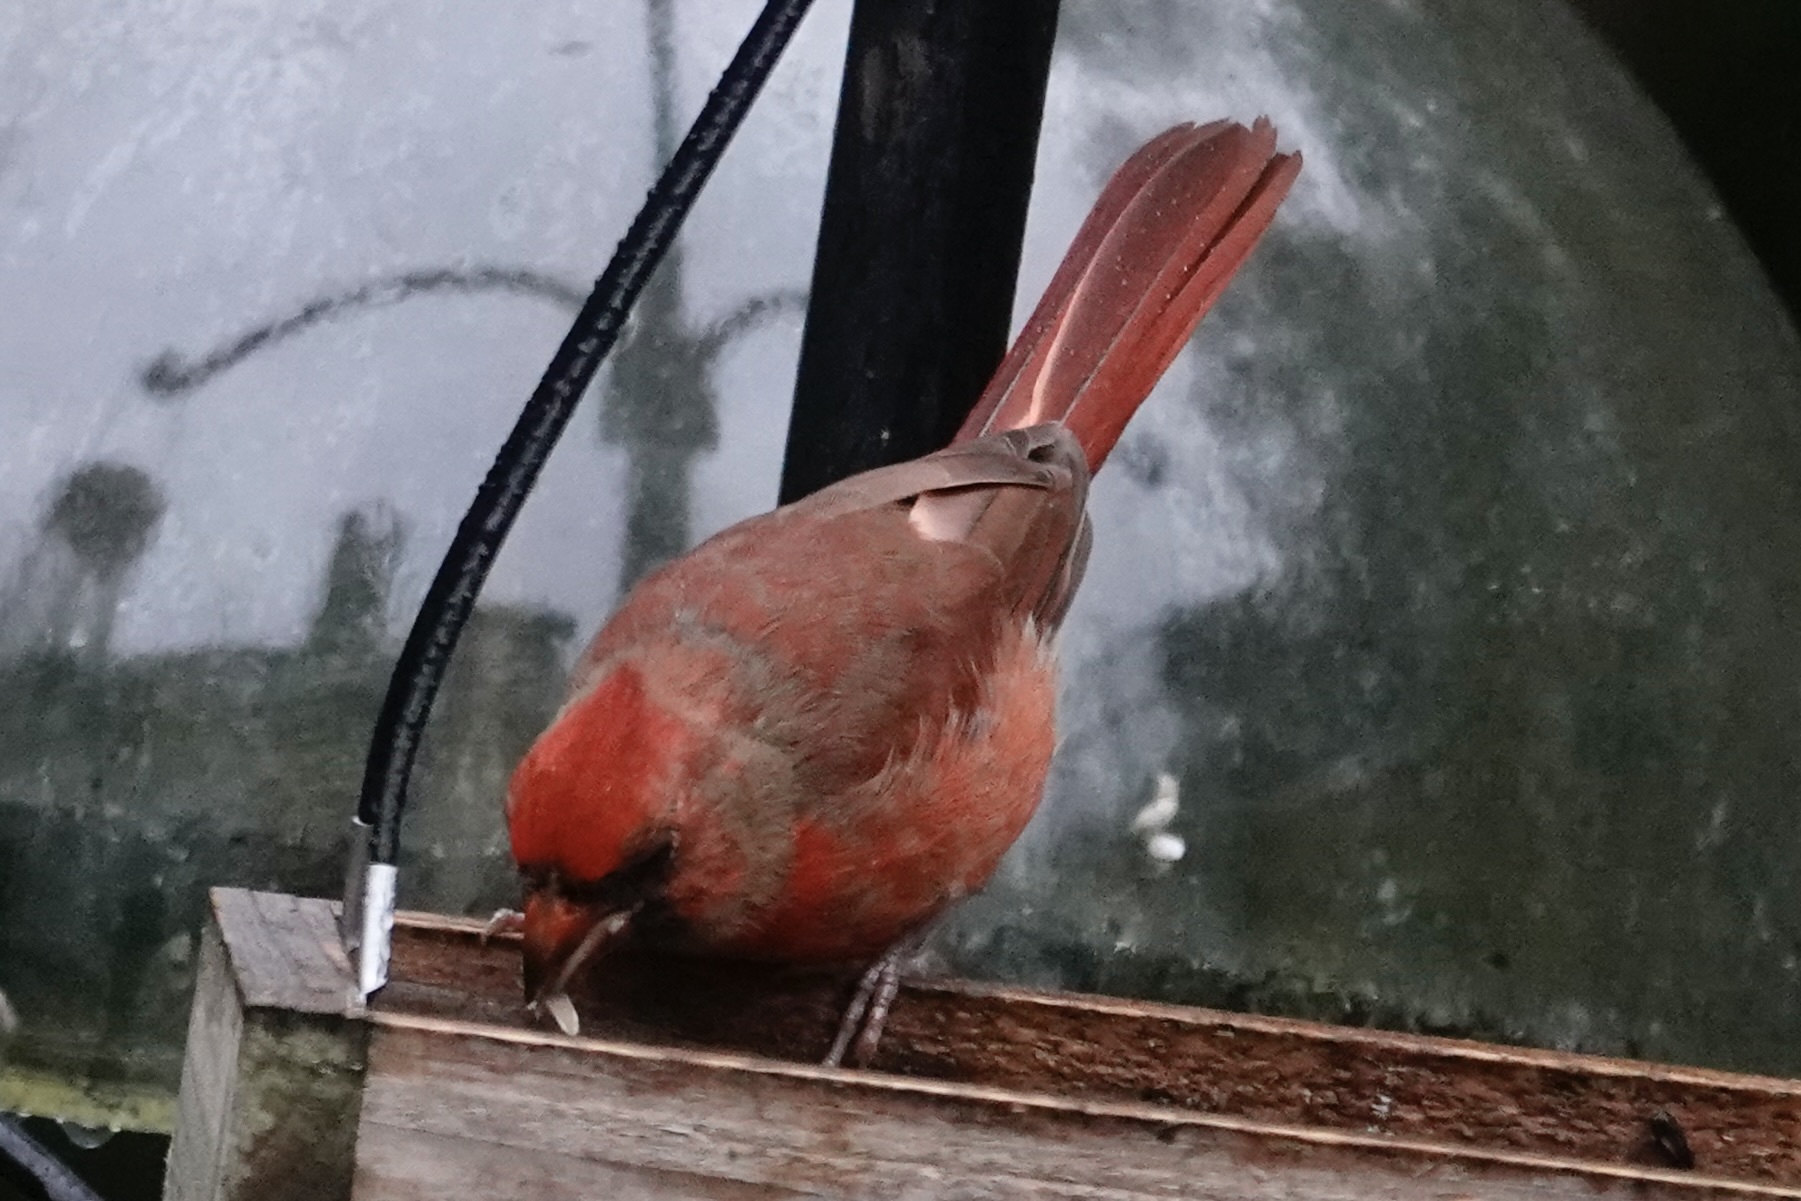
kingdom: Animalia
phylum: Chordata
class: Aves
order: Passeriformes
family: Cardinalidae
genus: Cardinalis
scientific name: Cardinalis cardinalis
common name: Northern cardinal
